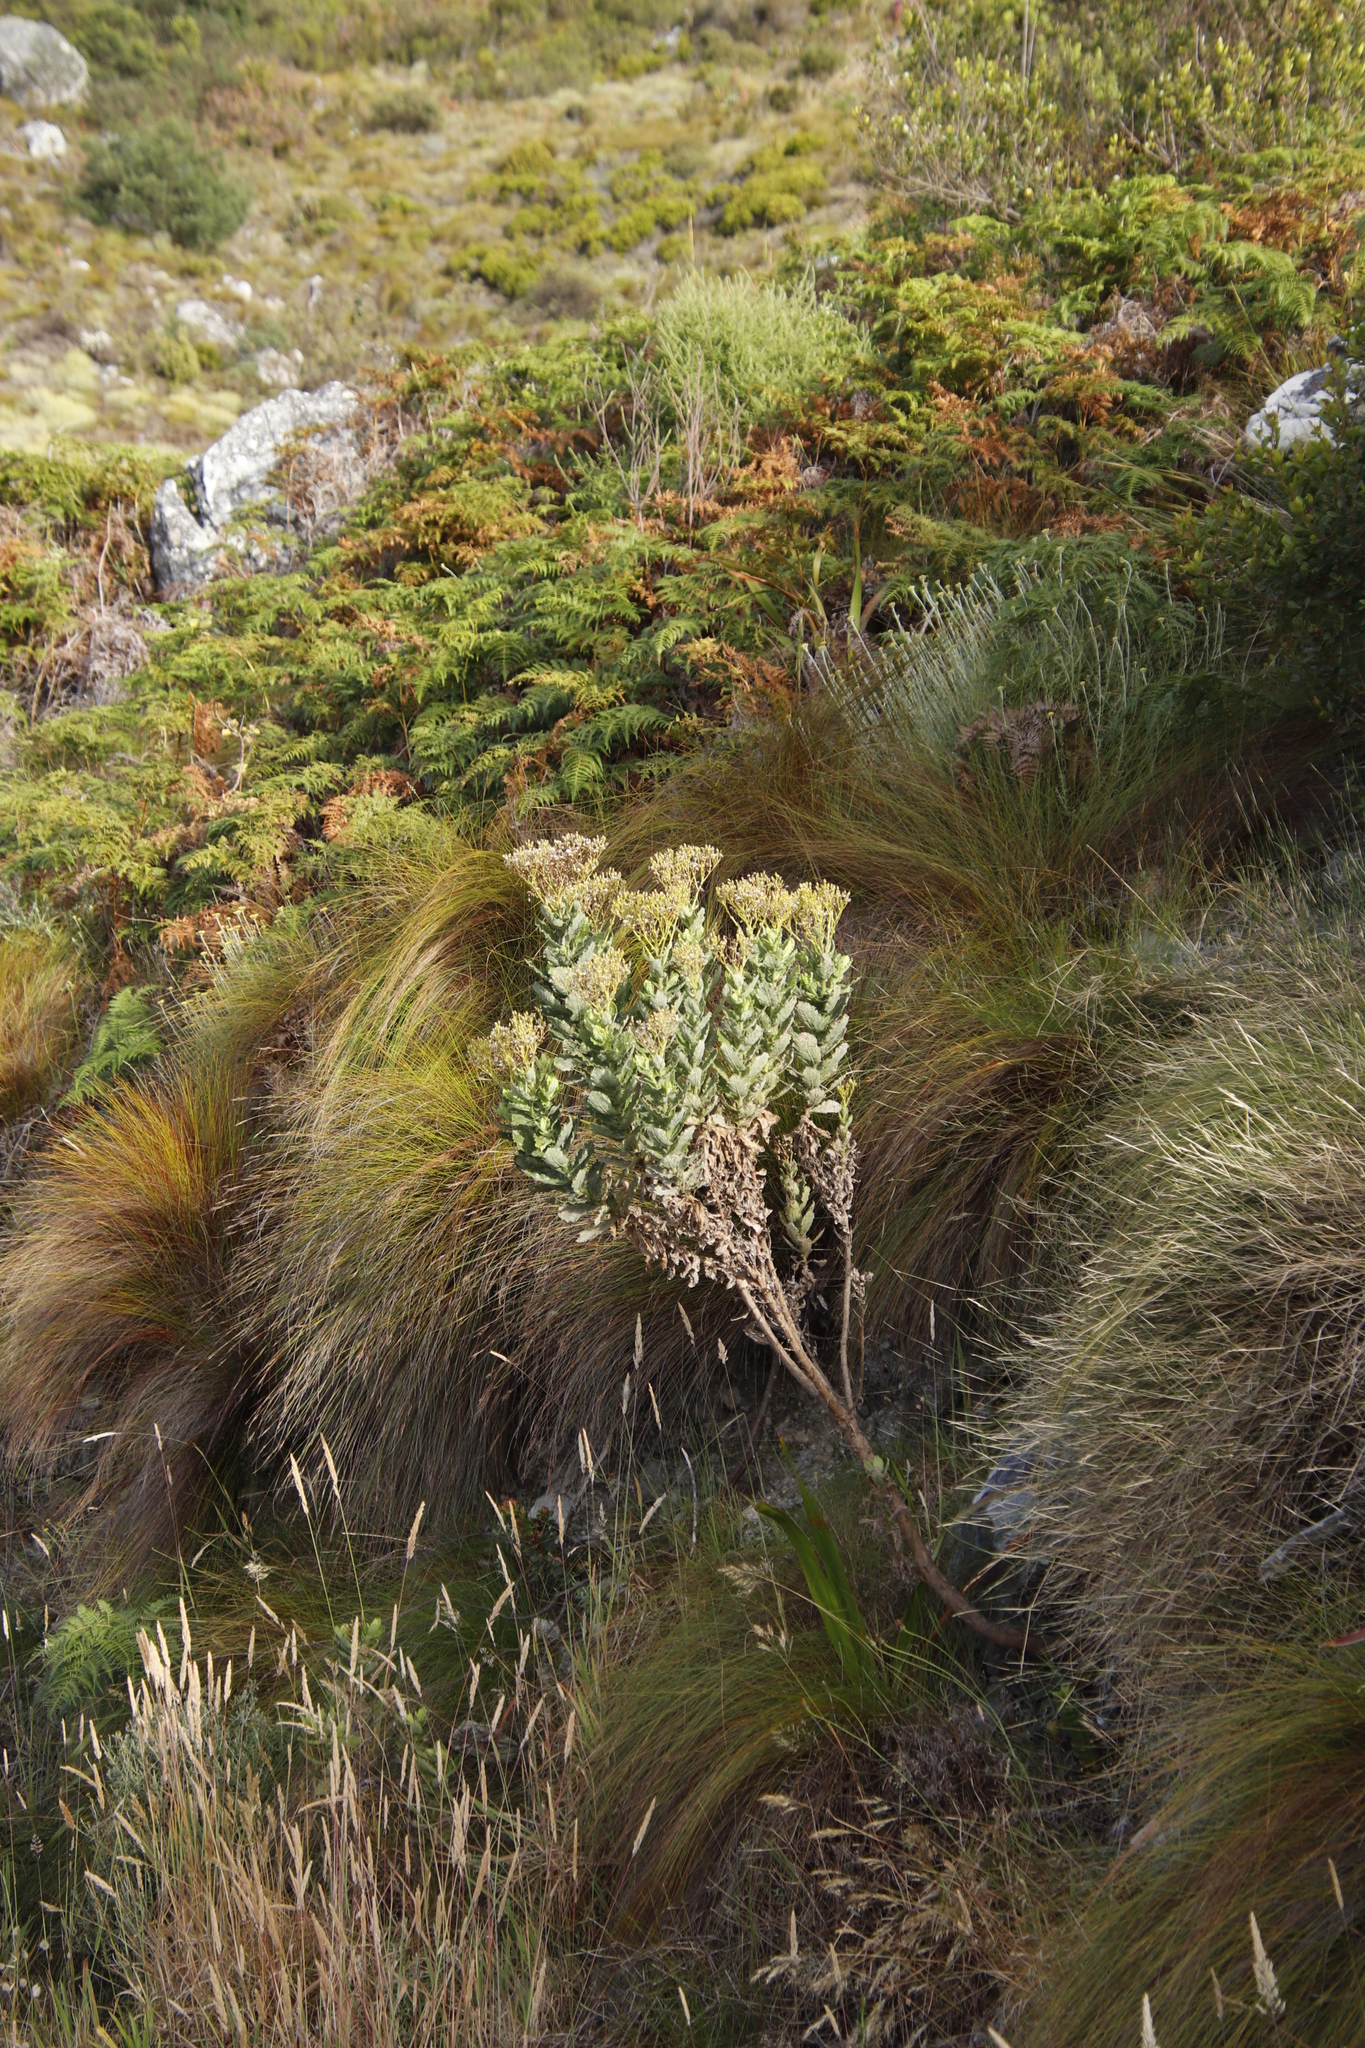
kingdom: Plantae
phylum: Tracheophyta
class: Magnoliopsida
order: Asterales
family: Asteraceae
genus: Senecio
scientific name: Senecio rigidus
